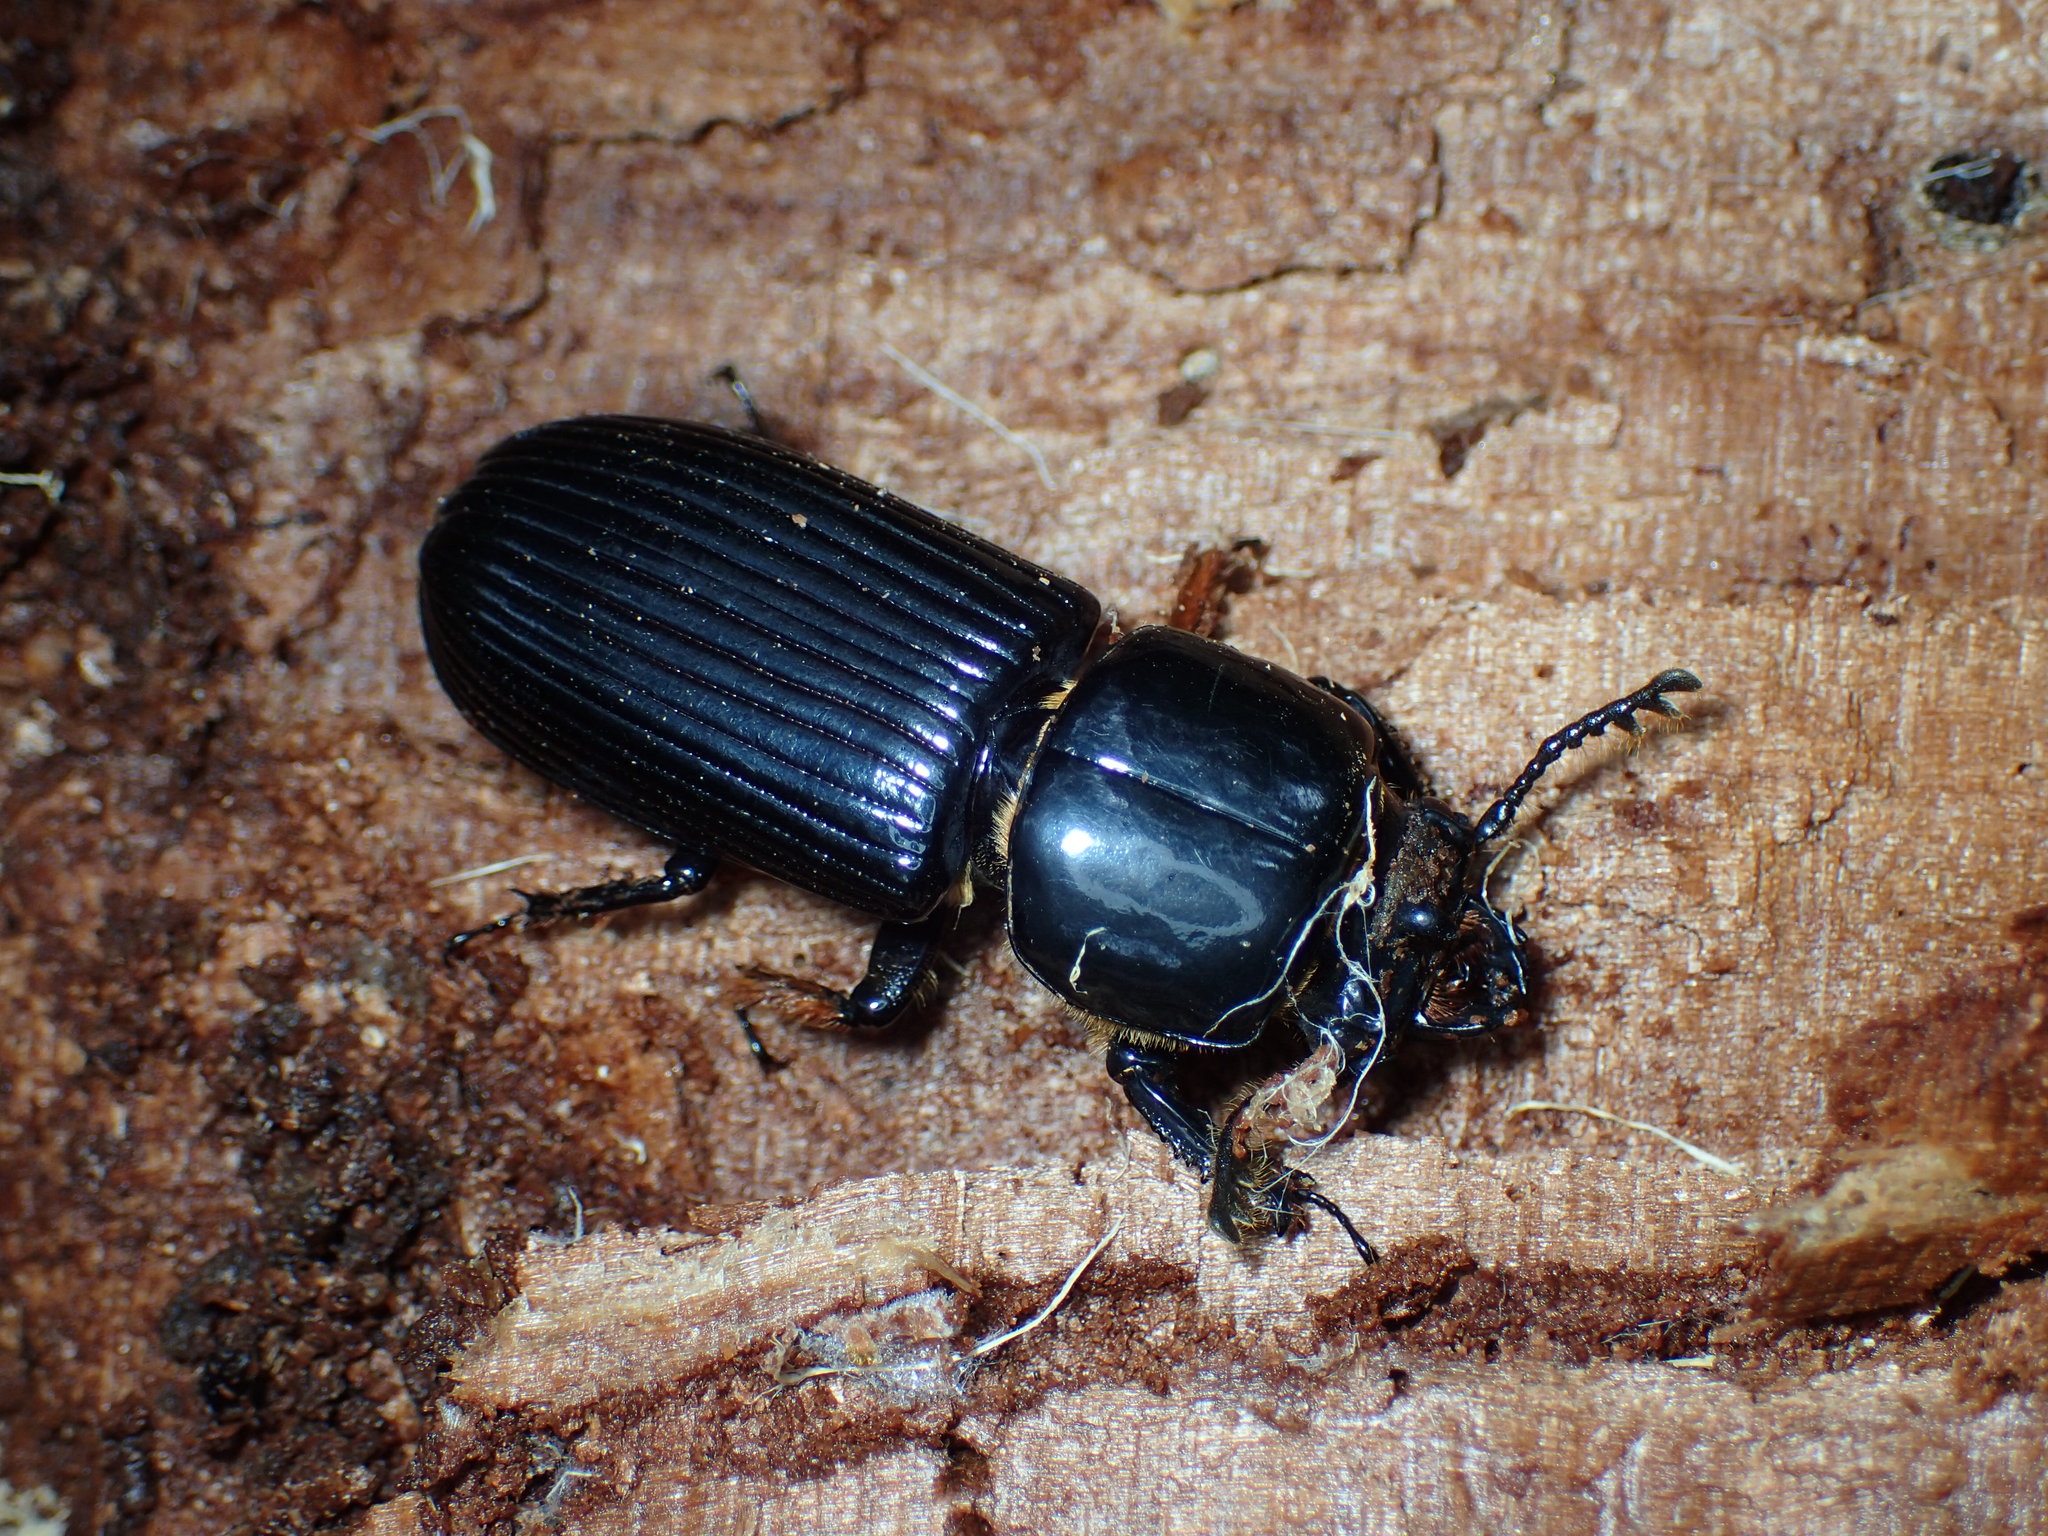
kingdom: Animalia
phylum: Arthropoda
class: Insecta
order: Coleoptera
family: Passalidae
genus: Odontotaenius
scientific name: Odontotaenius disjunctus
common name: Patent leather beetle
